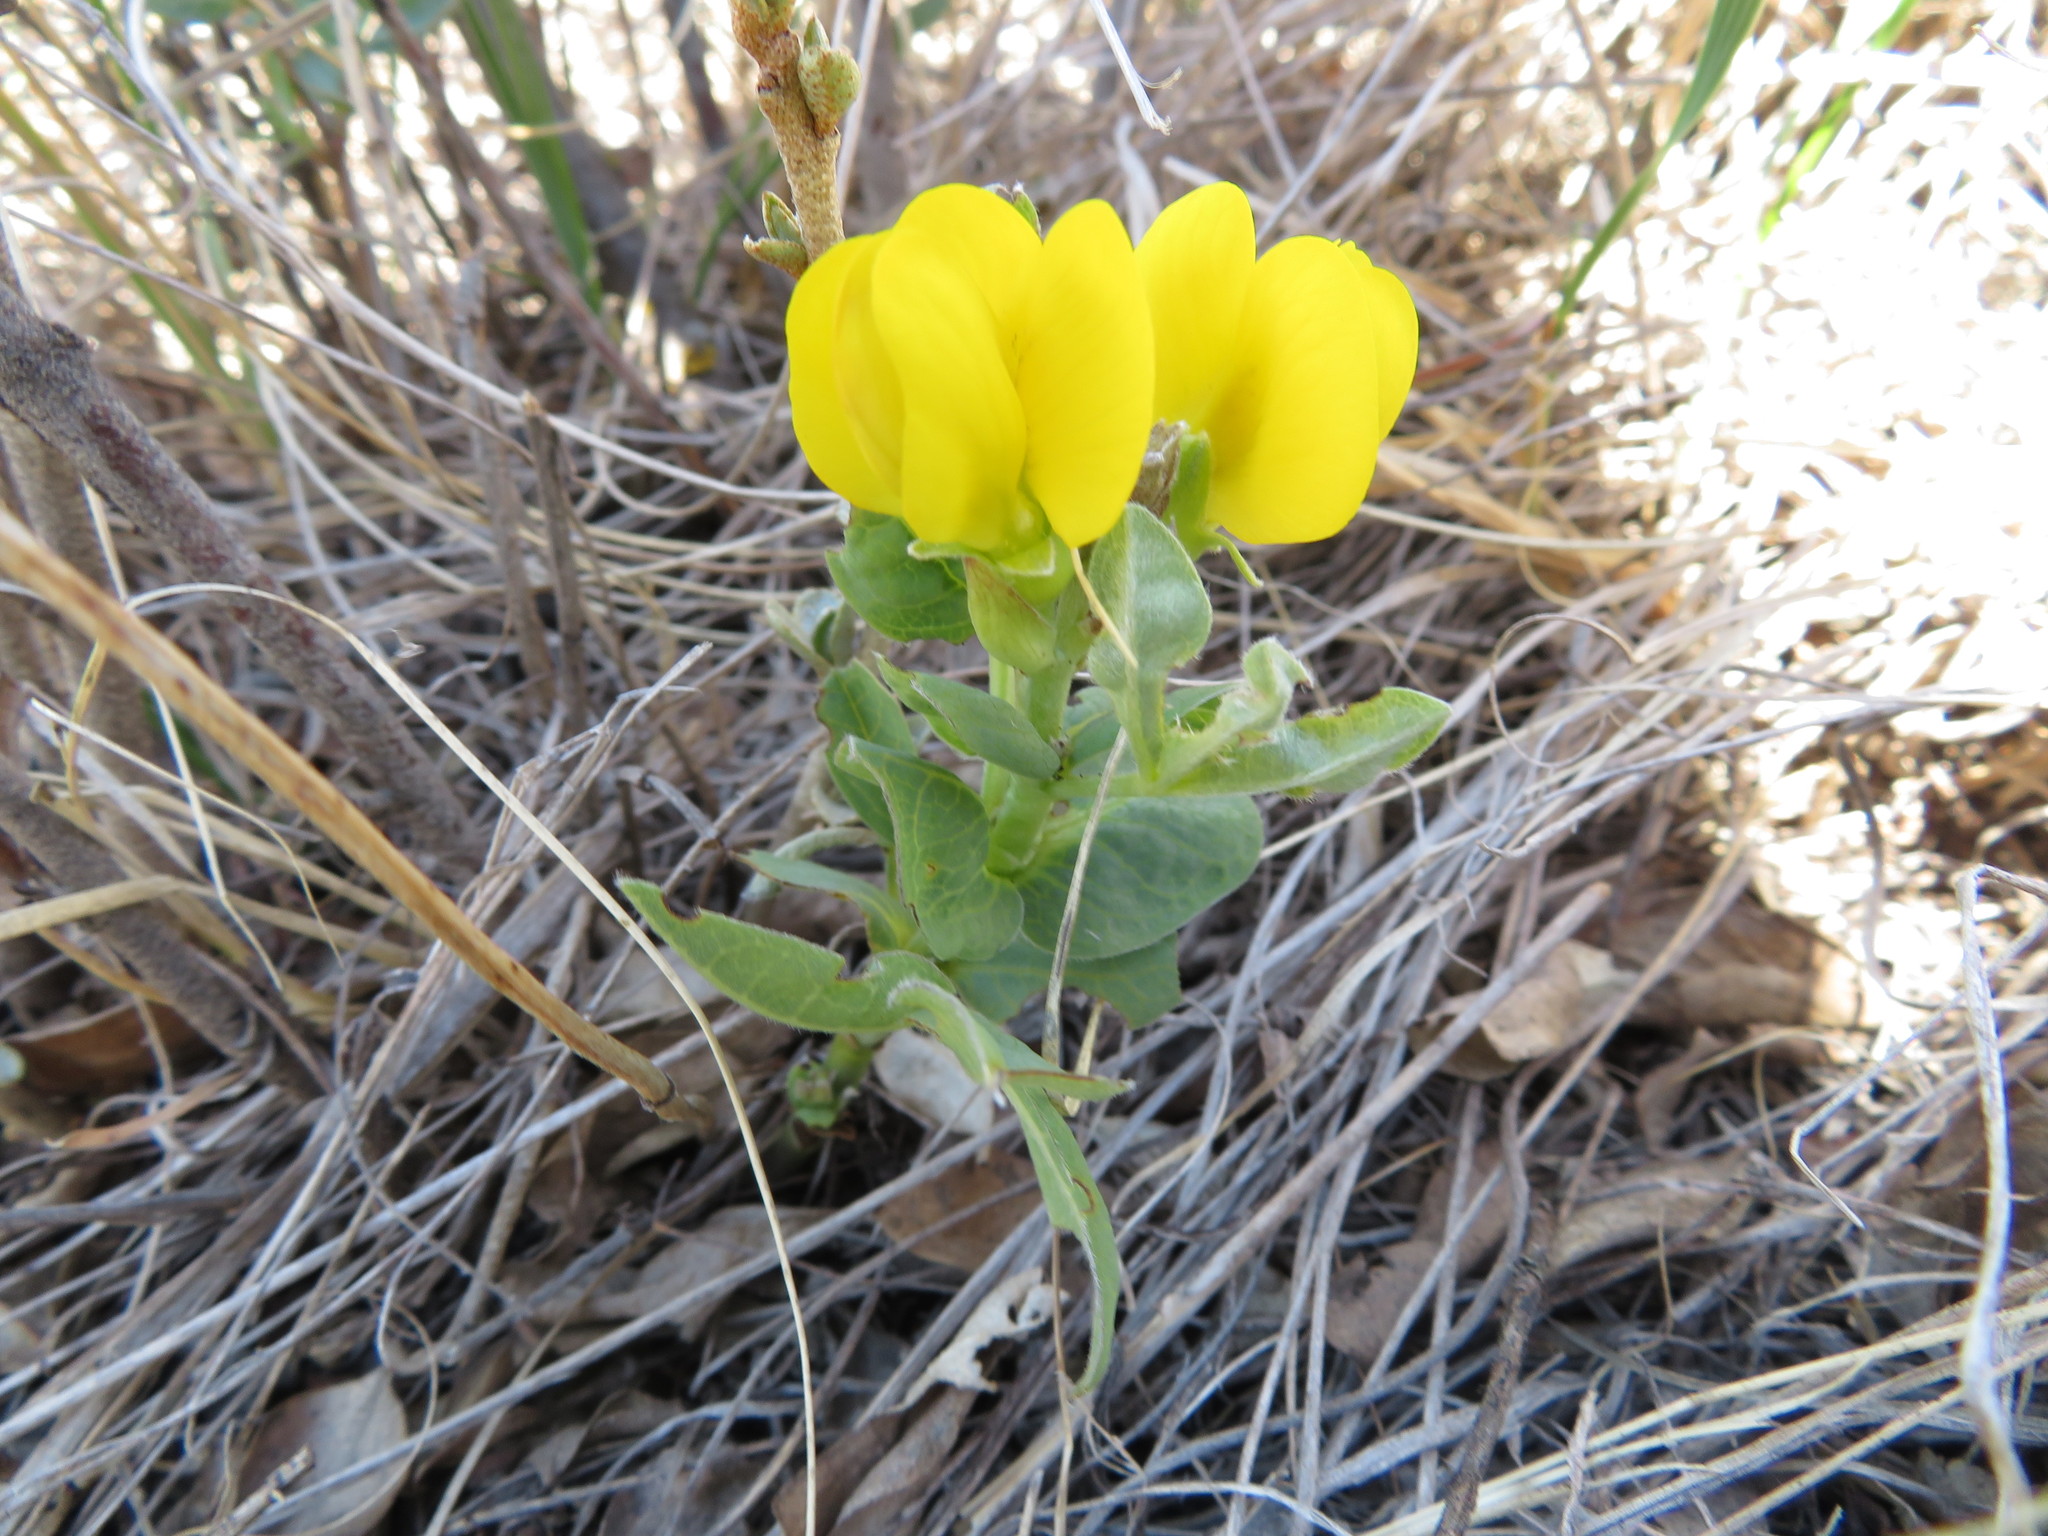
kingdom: Plantae
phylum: Tracheophyta
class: Magnoliopsida
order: Fabales
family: Fabaceae
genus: Thermopsis
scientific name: Thermopsis rhombifolia
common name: Circle-pod-pea
